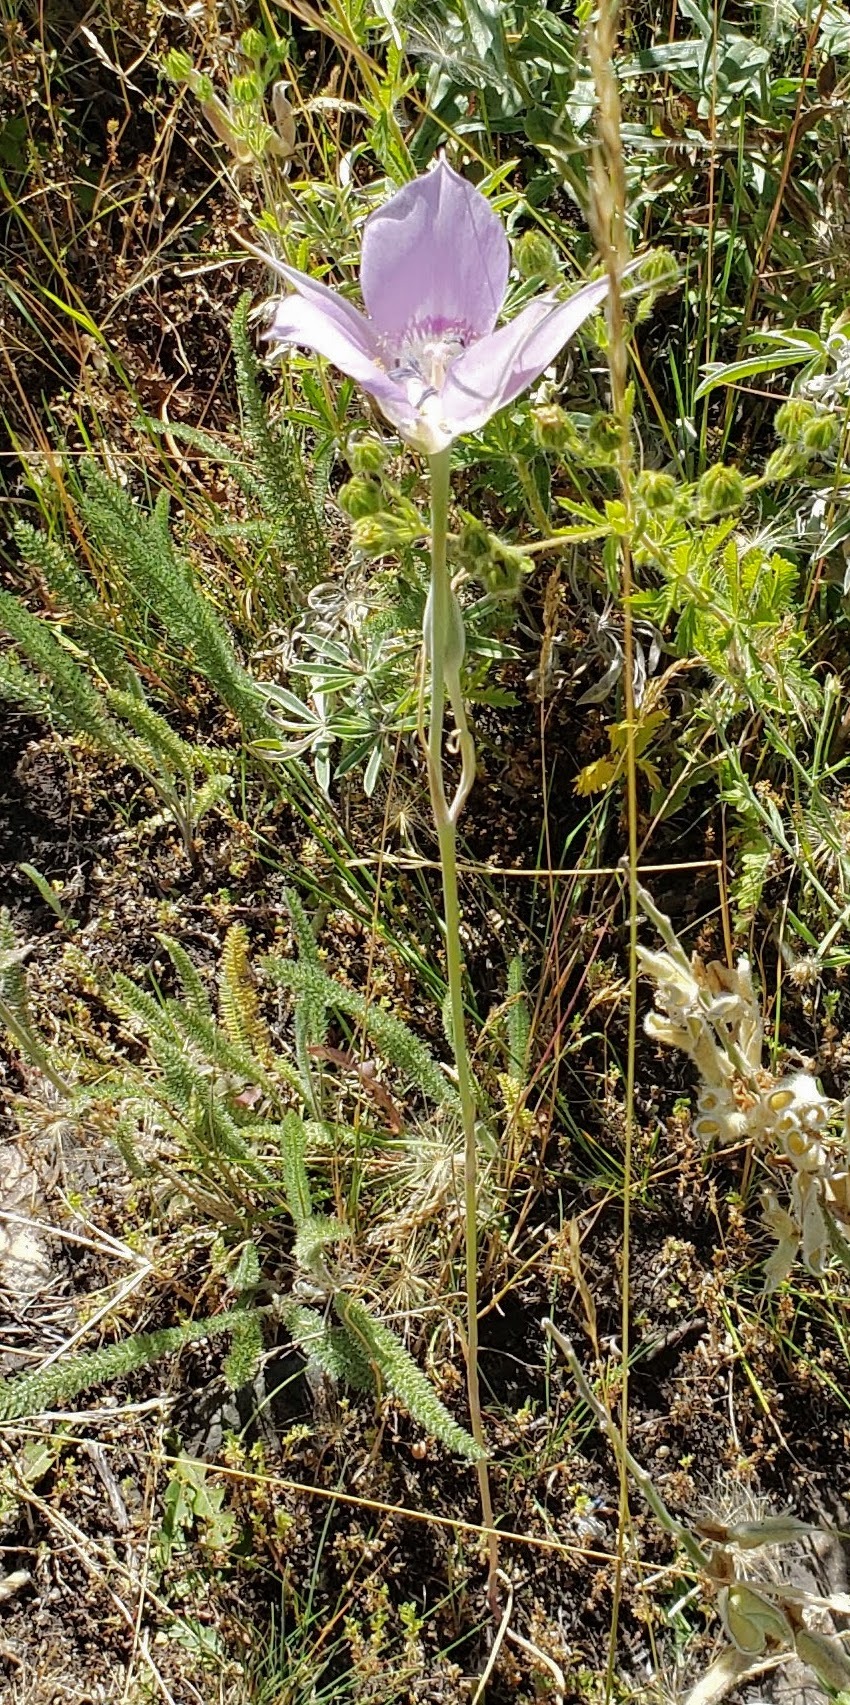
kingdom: Plantae
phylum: Tracheophyta
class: Liliopsida
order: Liliales
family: Liliaceae
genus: Calochortus
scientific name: Calochortus macrocarpus
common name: Green-band mariposa lily
